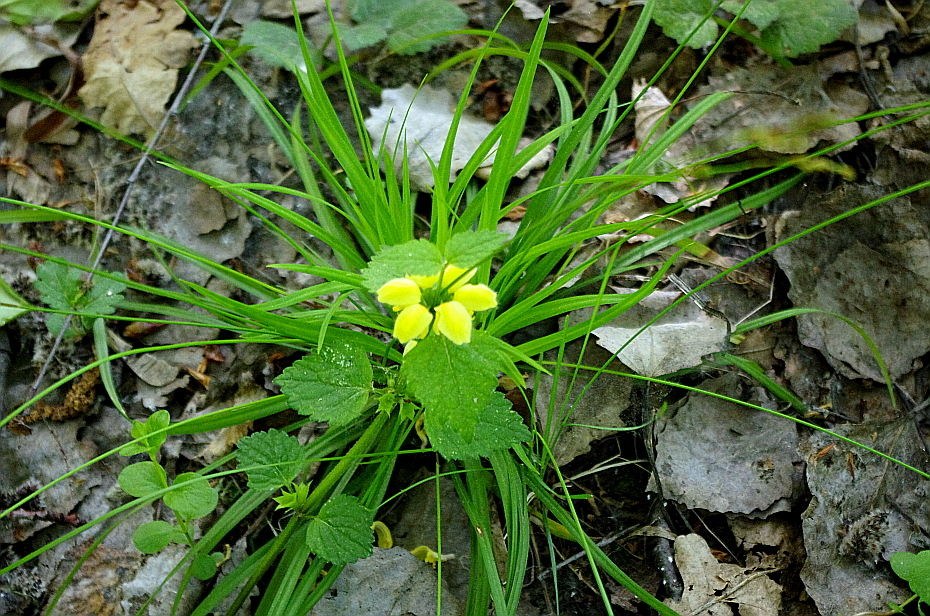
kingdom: Plantae
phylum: Tracheophyta
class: Magnoliopsida
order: Lamiales
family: Lamiaceae
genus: Lamium
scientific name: Lamium galeobdolon
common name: Yellow archangel
